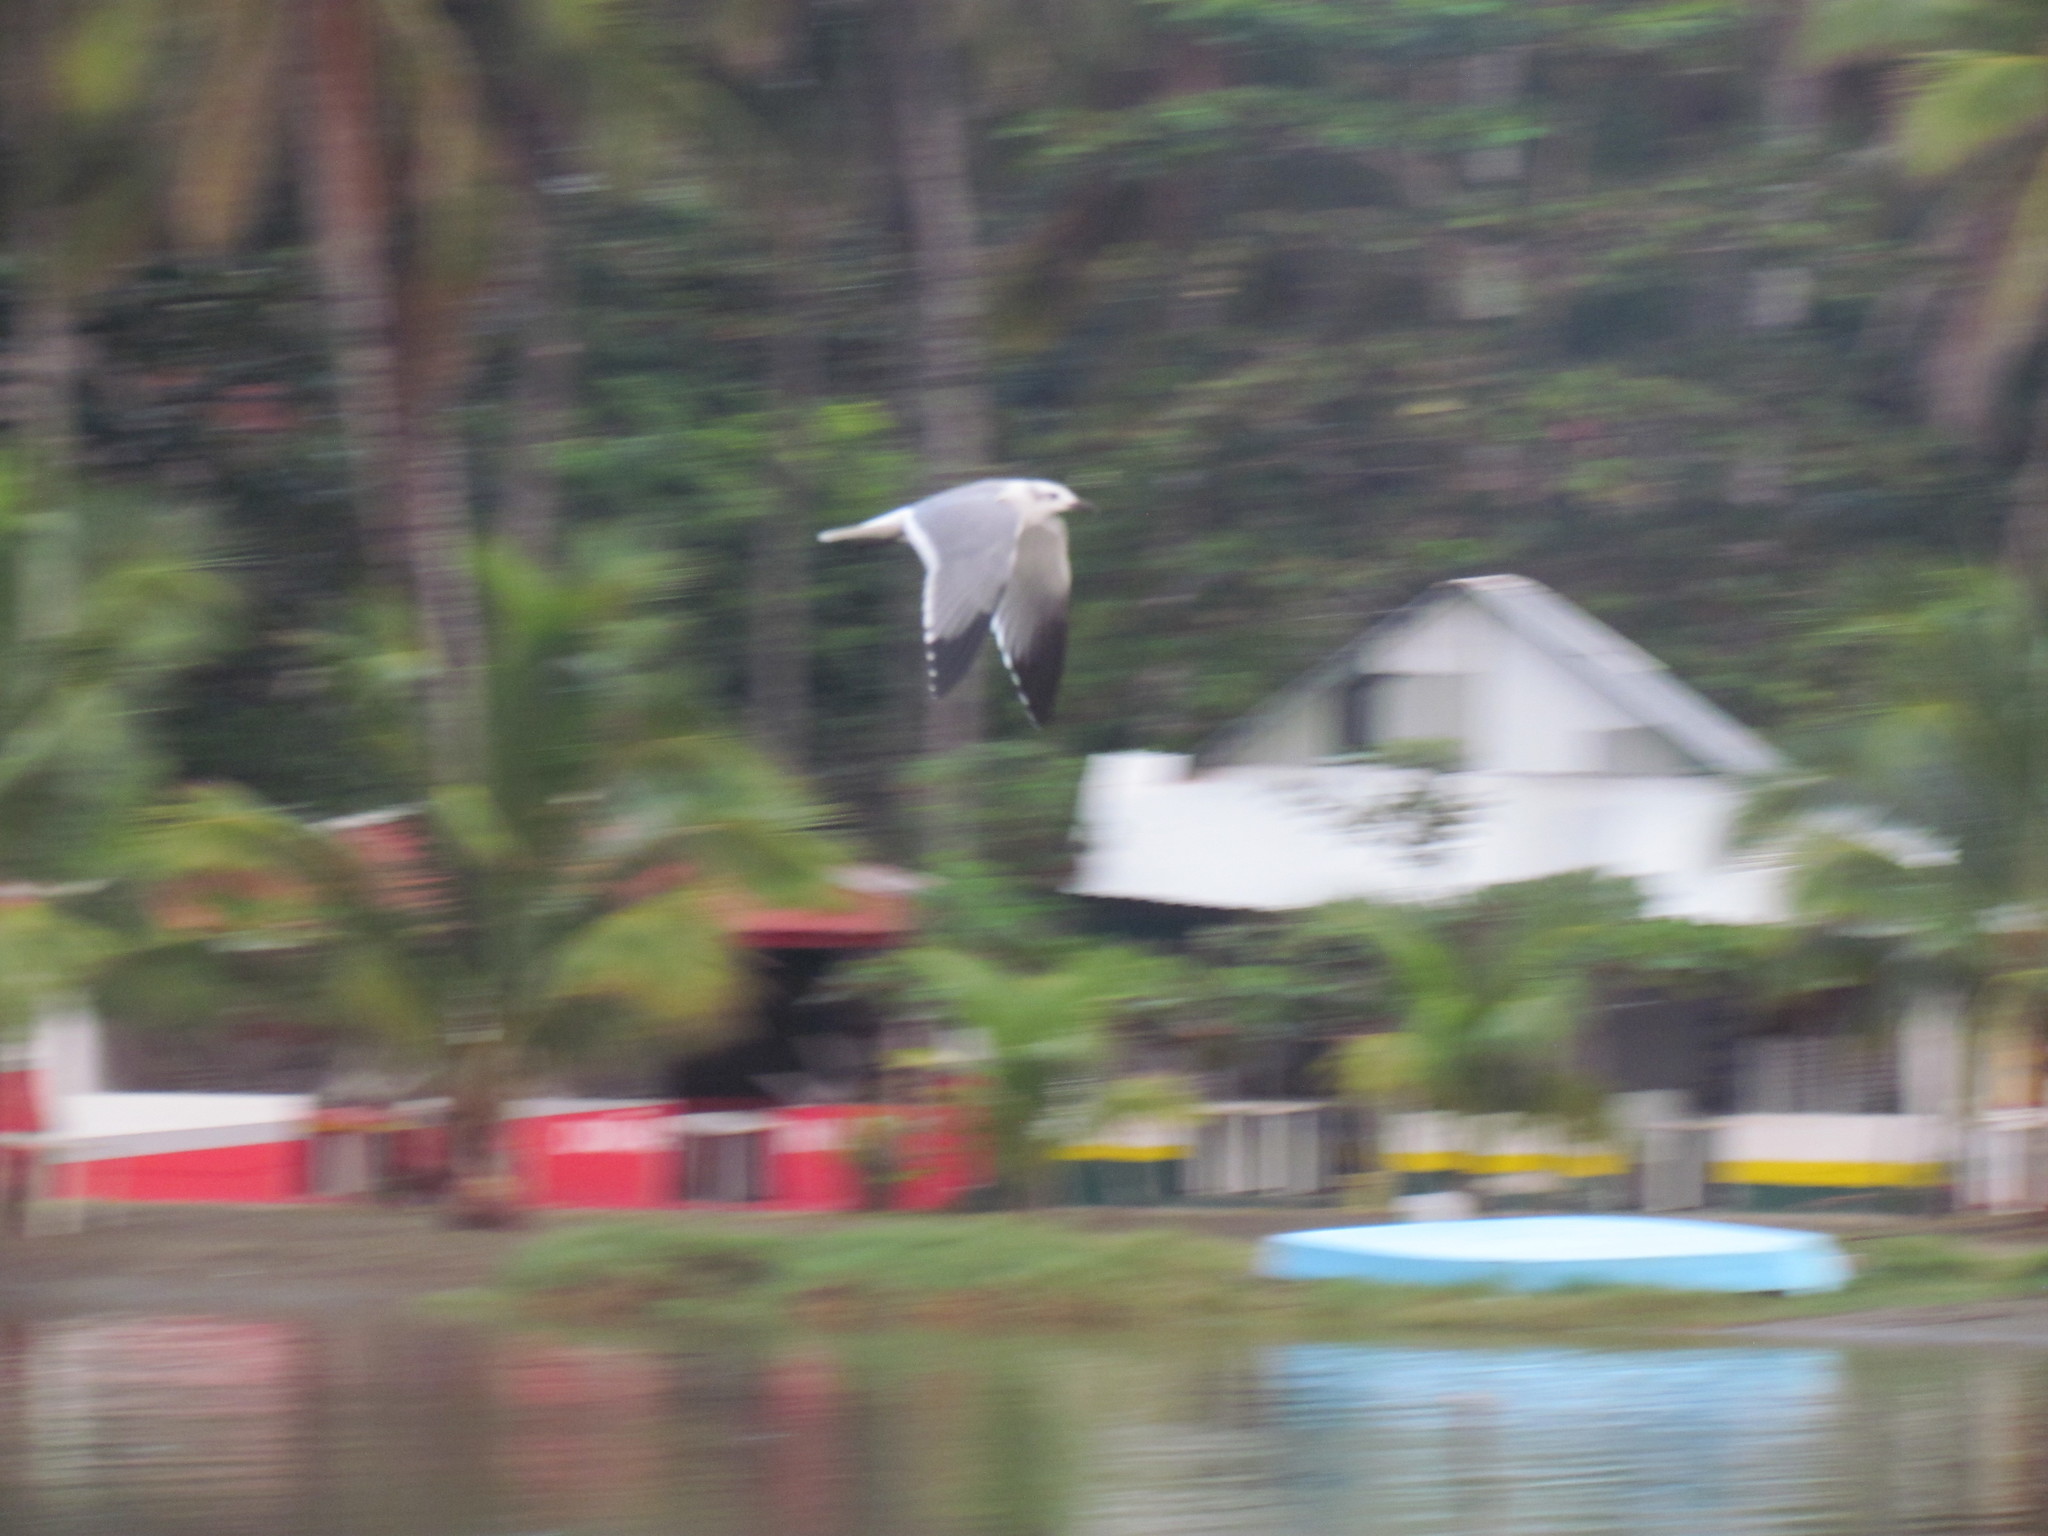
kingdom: Animalia
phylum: Chordata
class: Aves
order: Charadriiformes
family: Laridae
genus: Leucophaeus
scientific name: Leucophaeus atricilla
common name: Laughing gull
